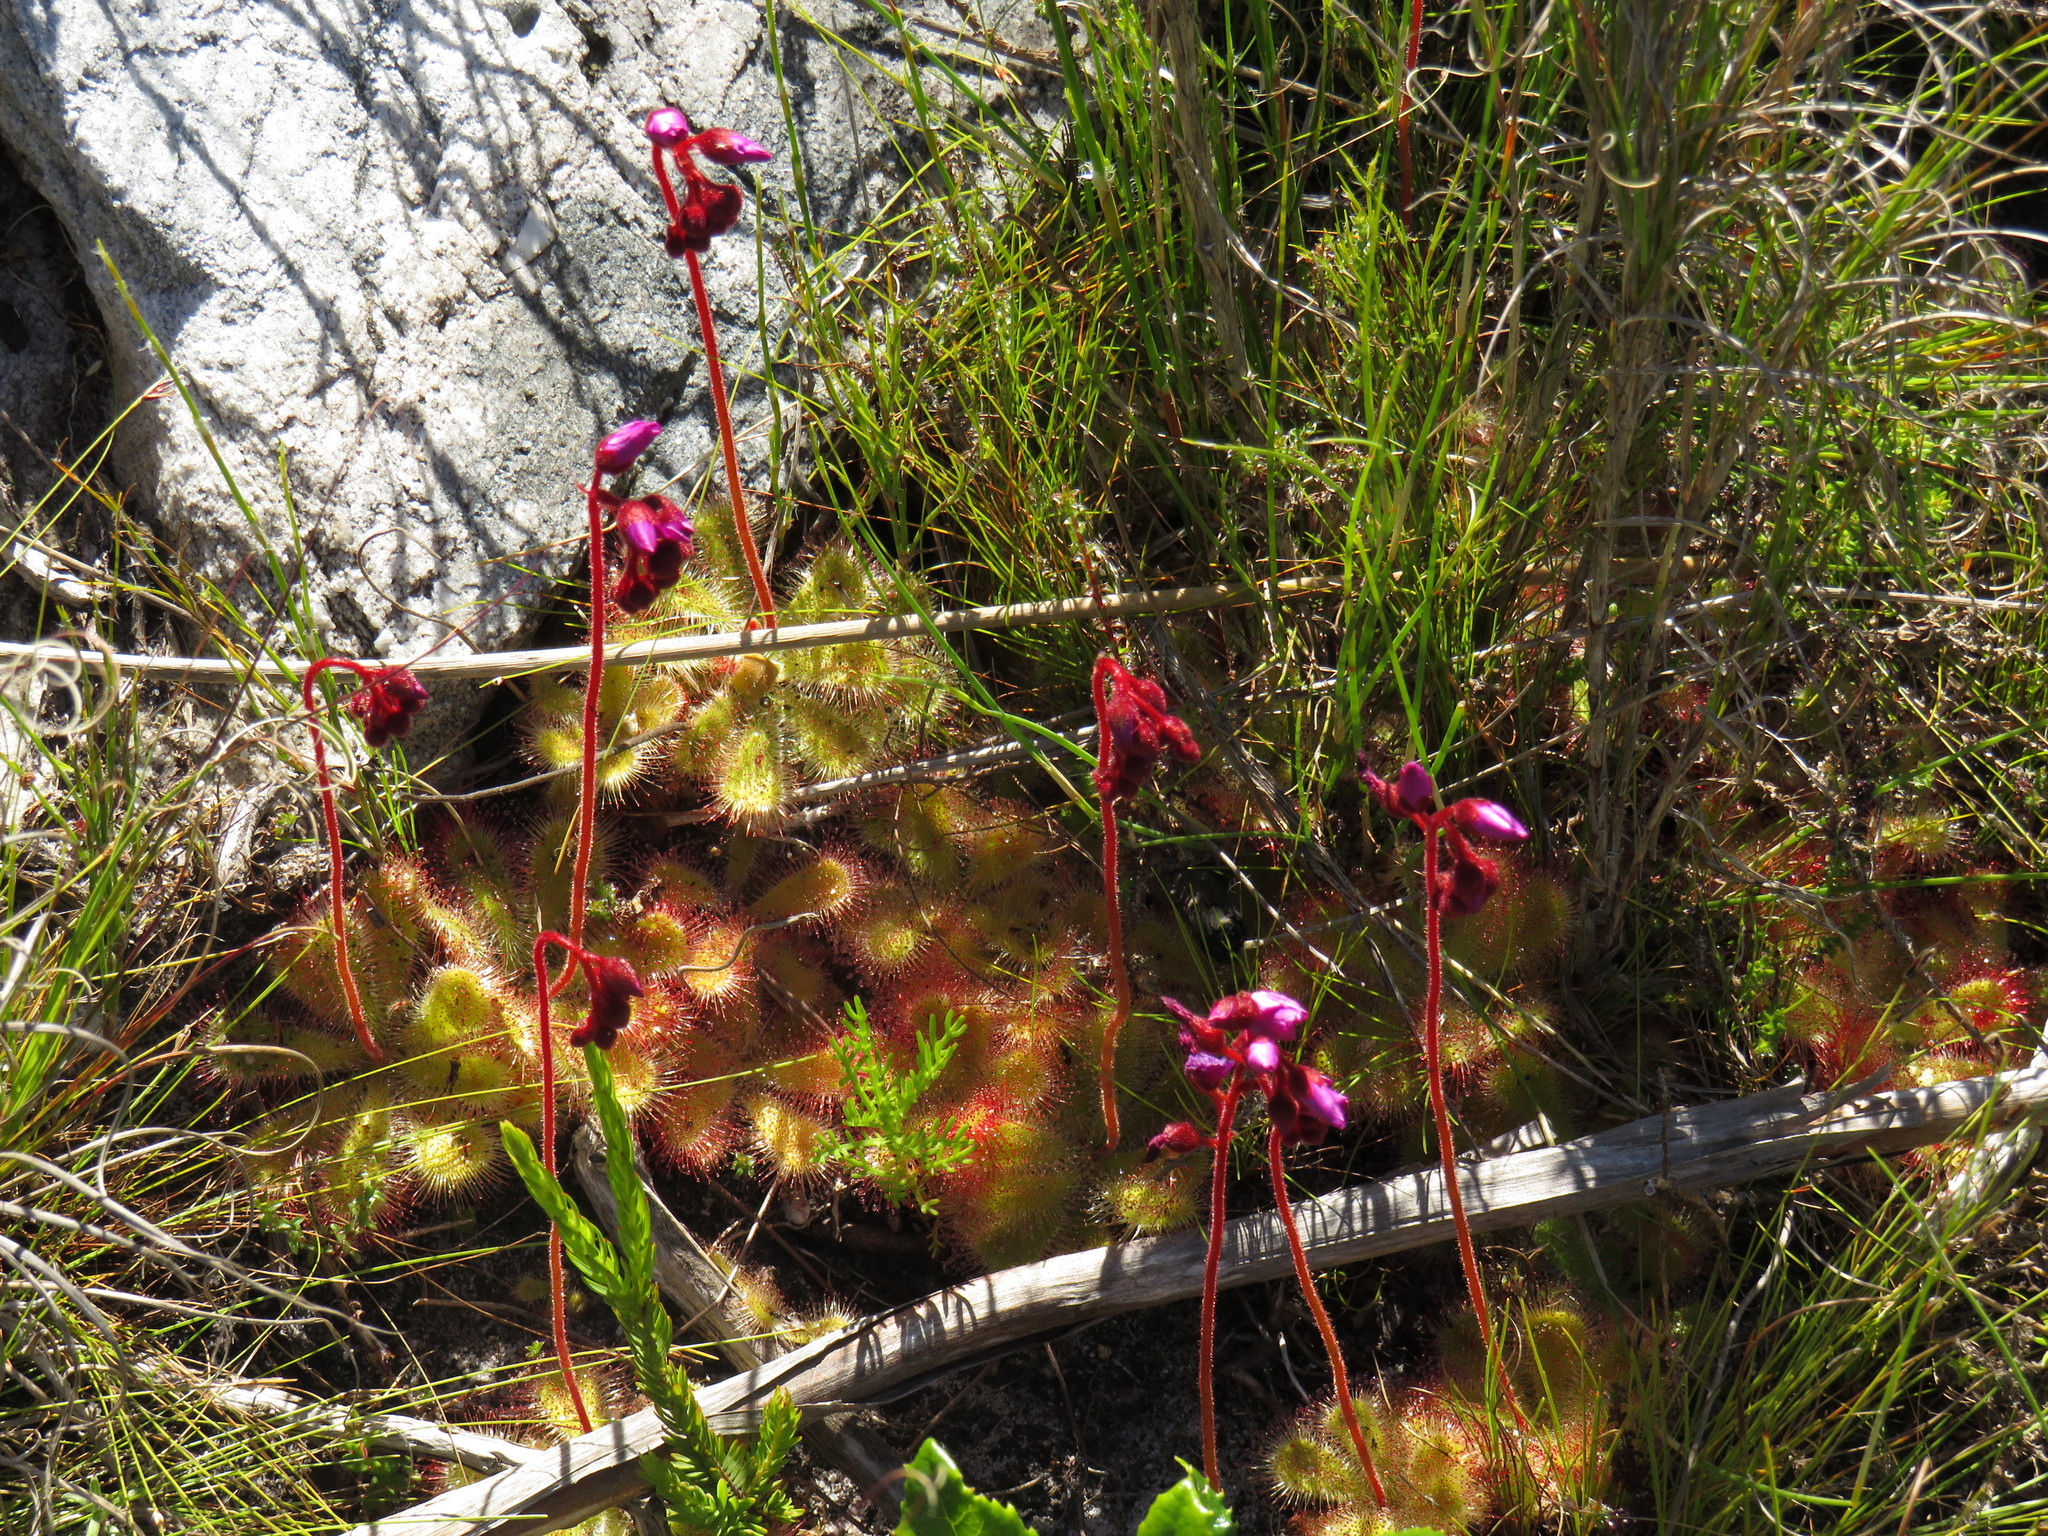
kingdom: Plantae
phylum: Tracheophyta
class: Magnoliopsida
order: Caryophyllales
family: Droseraceae
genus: Drosera
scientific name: Drosera cuneifolia
